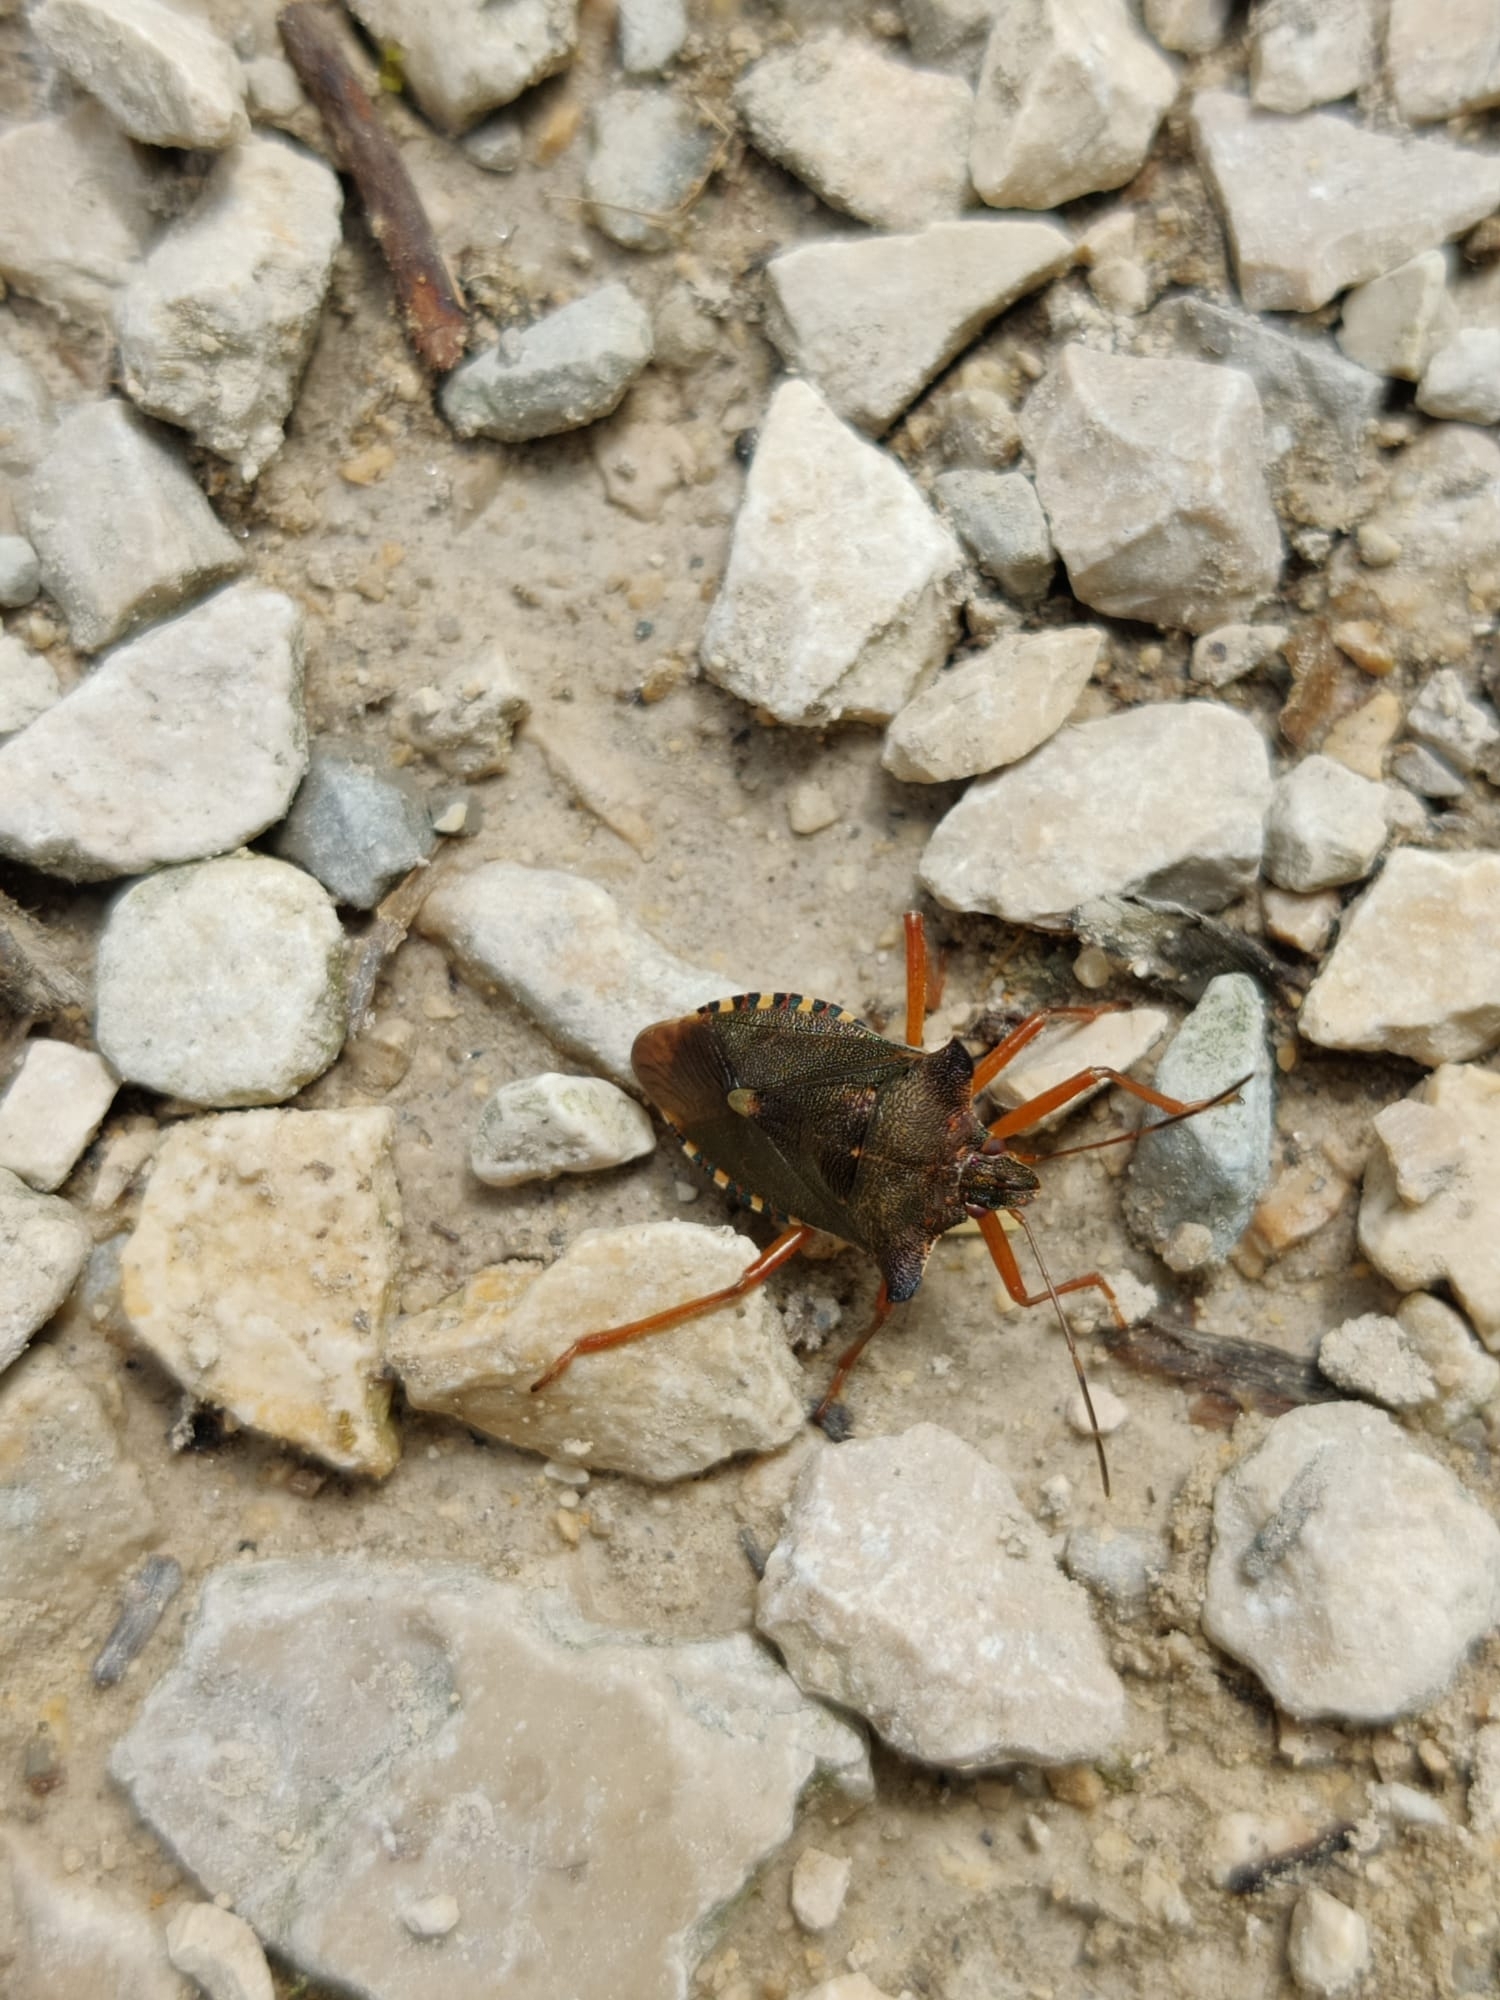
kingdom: Animalia
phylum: Arthropoda
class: Insecta
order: Hemiptera
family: Pentatomidae
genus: Pentatoma
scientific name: Pentatoma rufipes
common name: Forest bug
